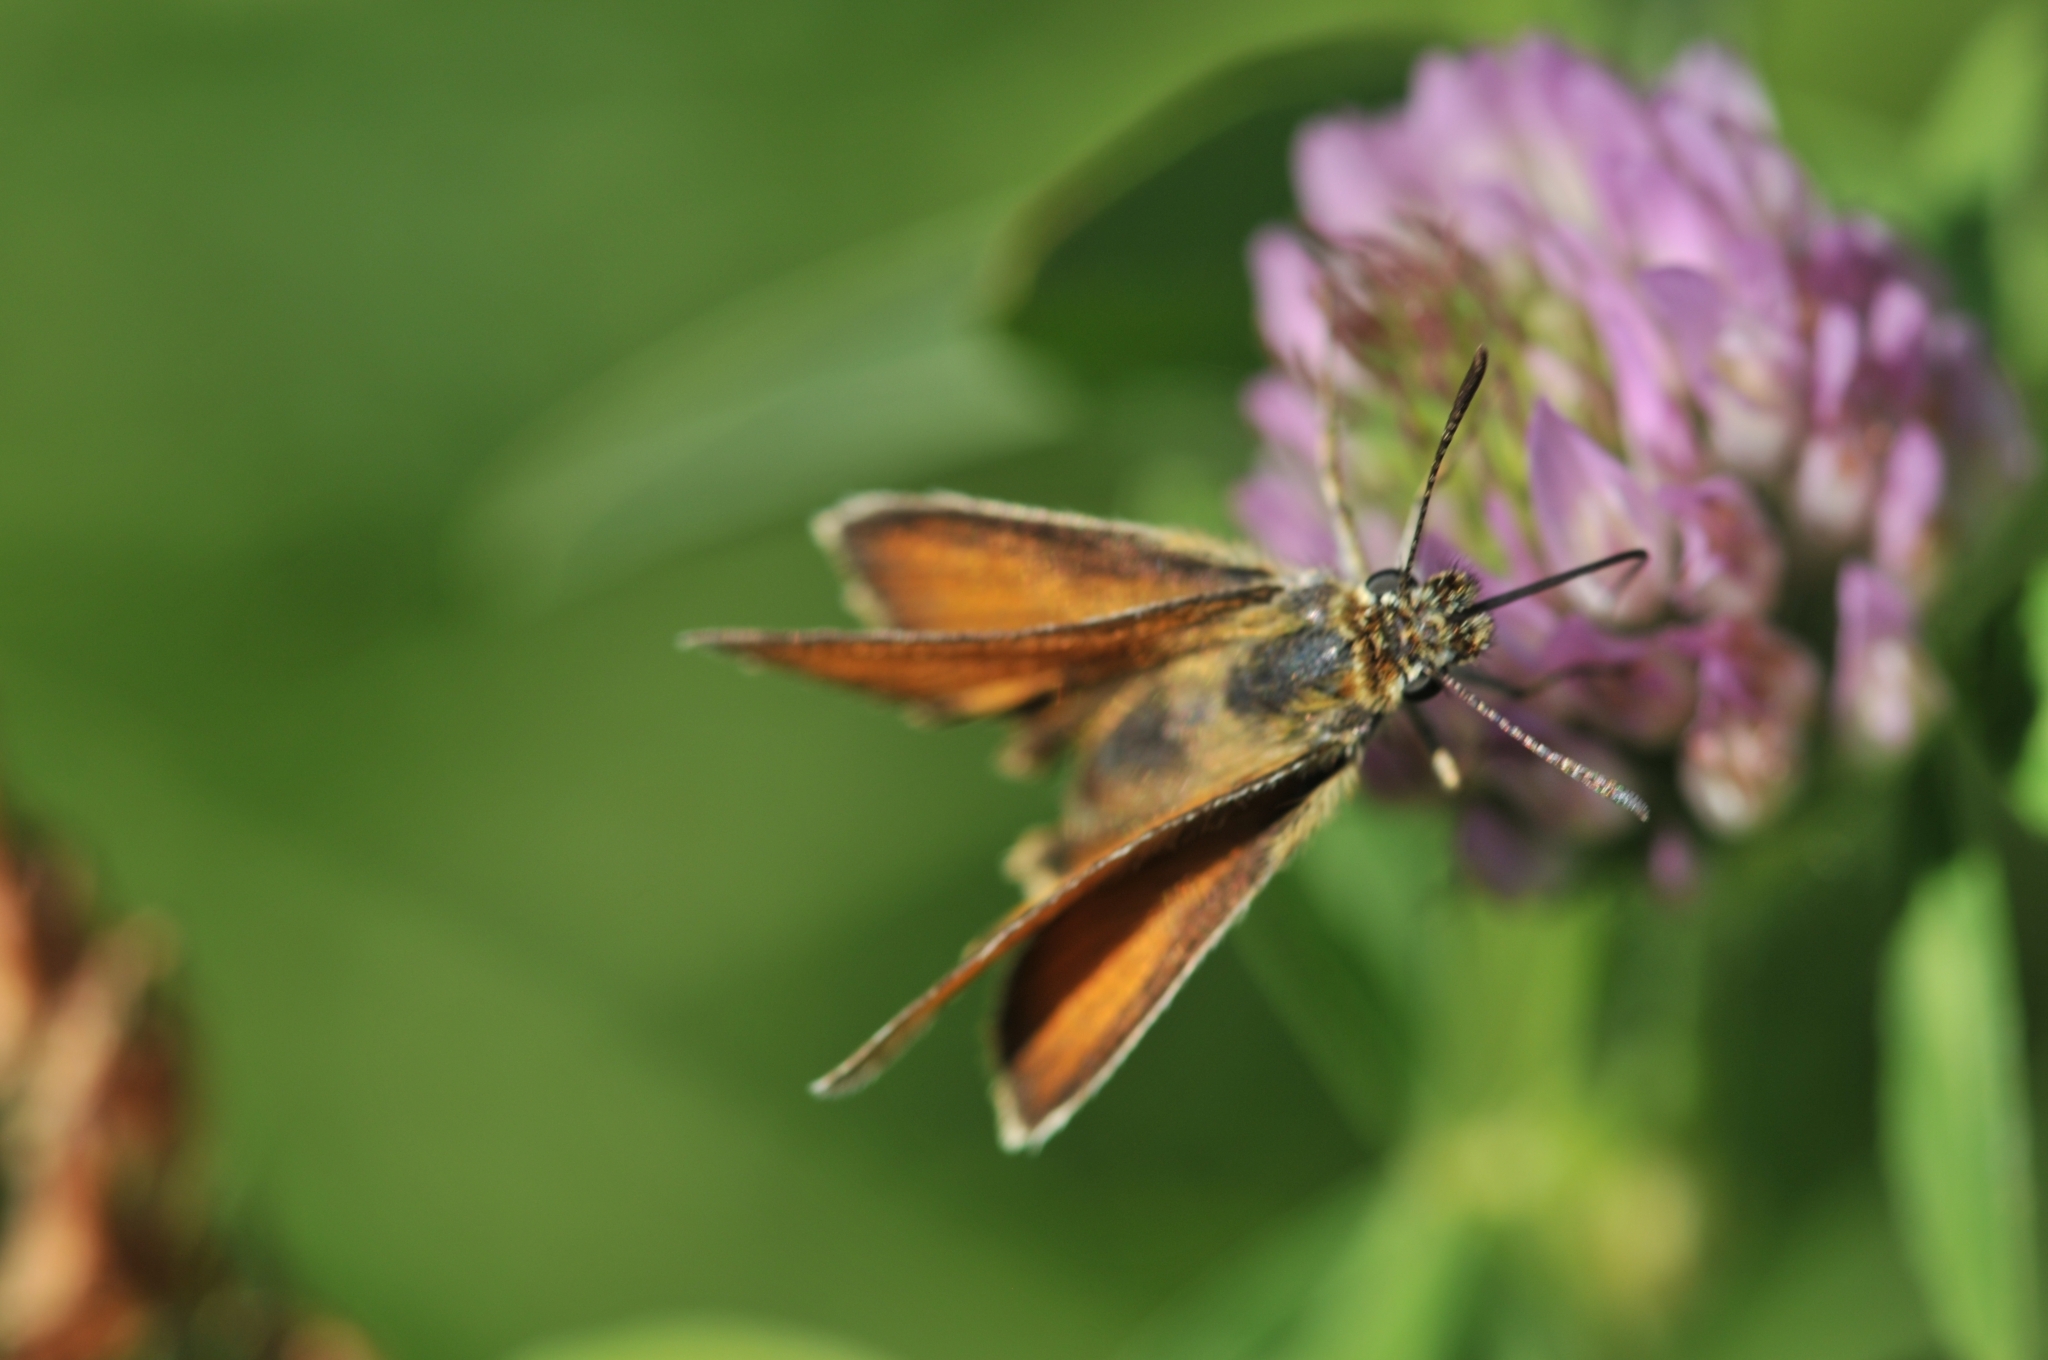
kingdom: Animalia
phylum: Arthropoda
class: Insecta
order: Lepidoptera
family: Hesperiidae
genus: Thymelicus
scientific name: Thymelicus lineola
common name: Essex skipper
